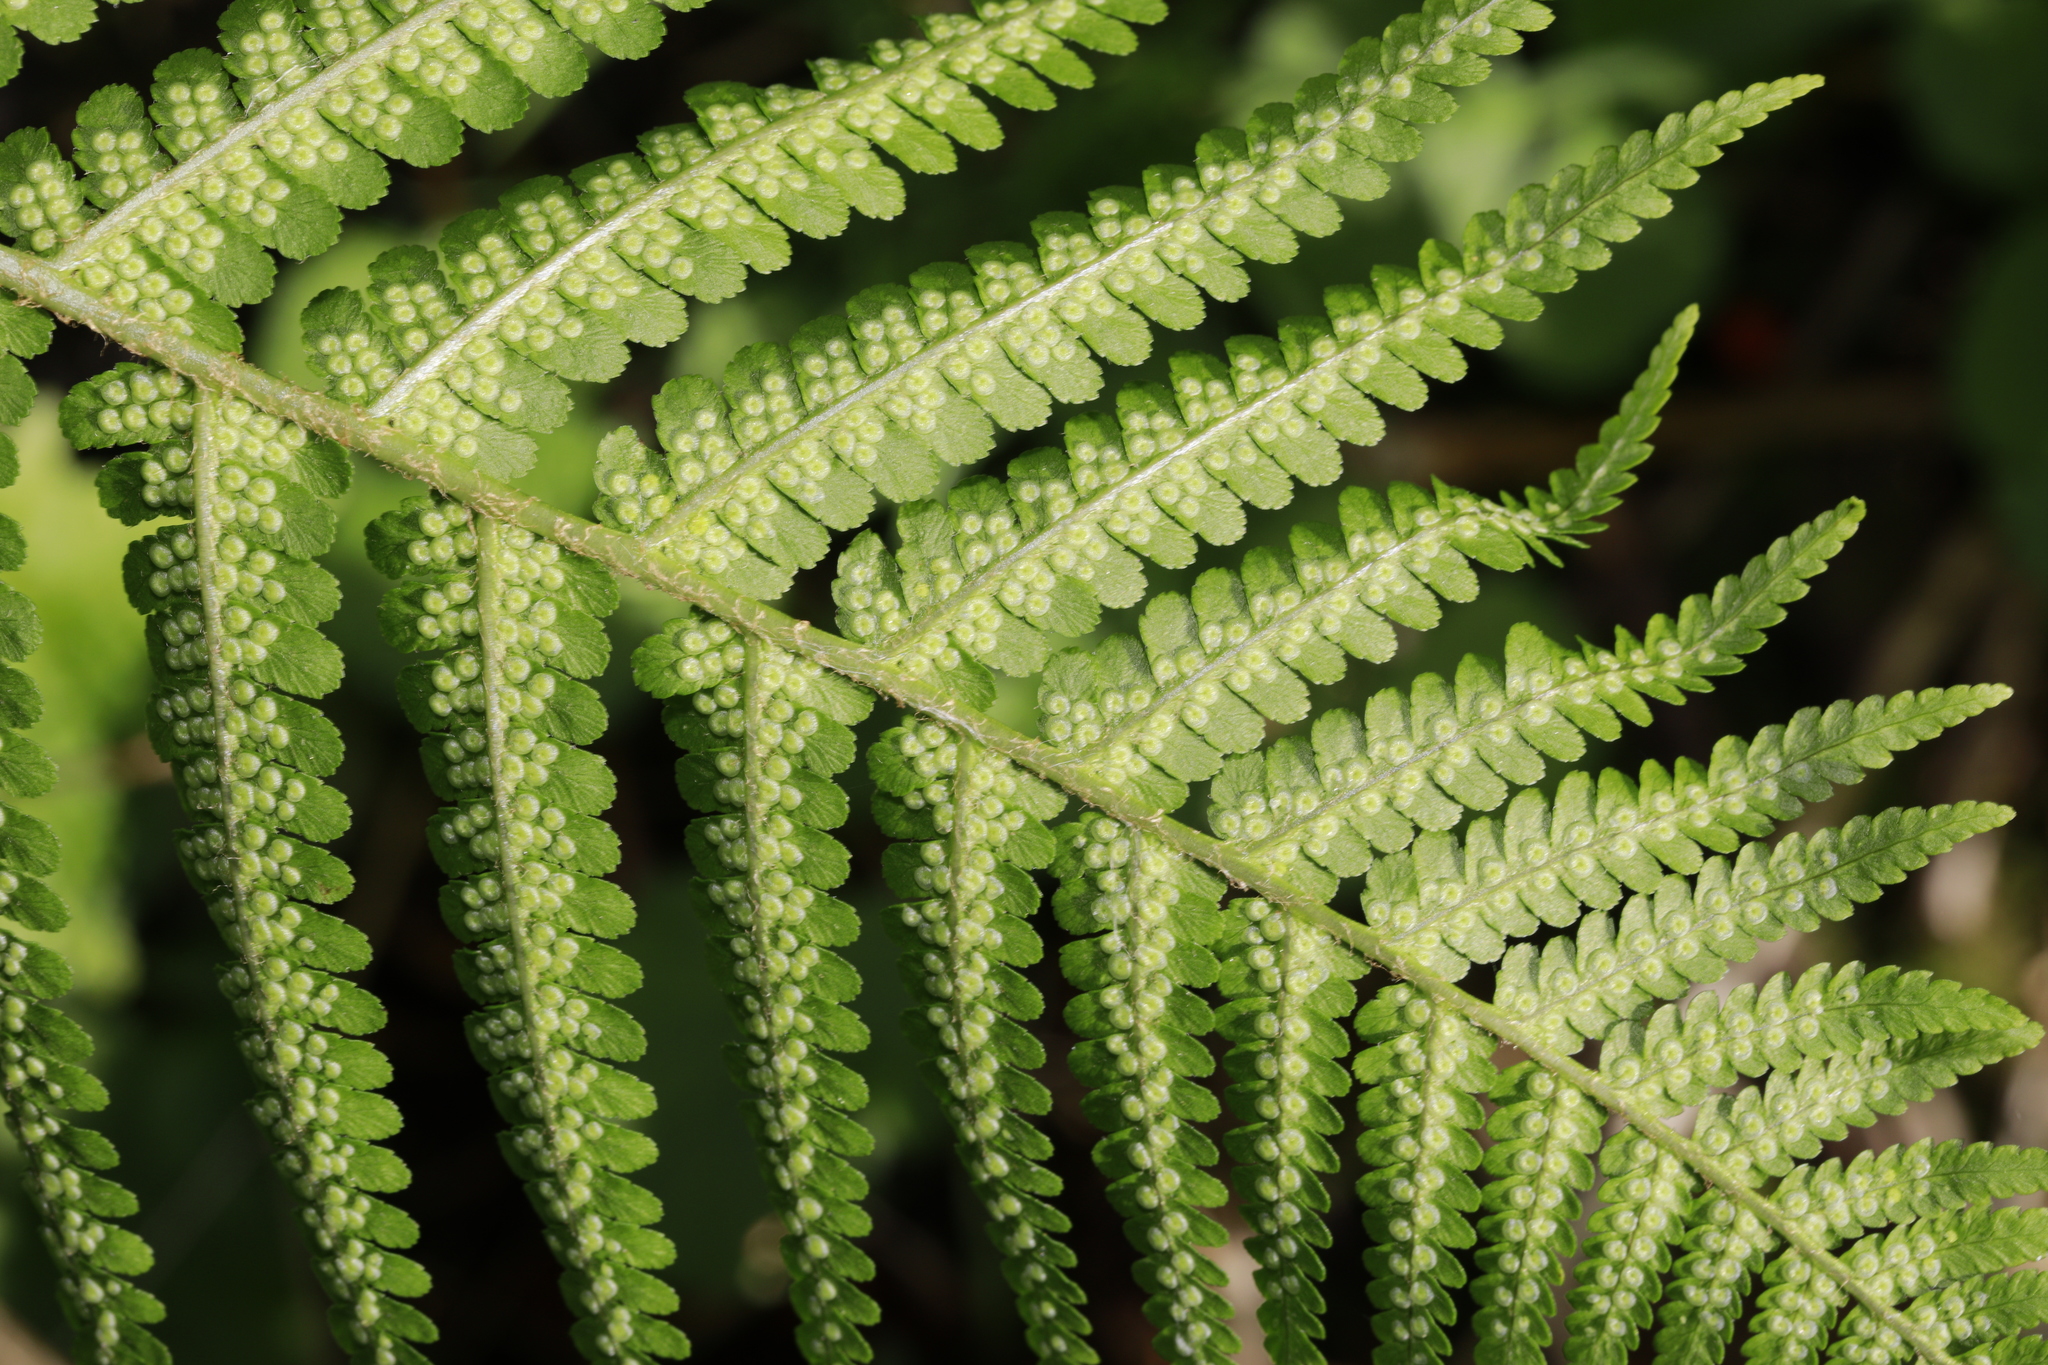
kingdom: Plantae
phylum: Tracheophyta
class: Polypodiopsida
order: Polypodiales
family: Dryopteridaceae
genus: Dryopteris
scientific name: Dryopteris filix-mas
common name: Male fern
